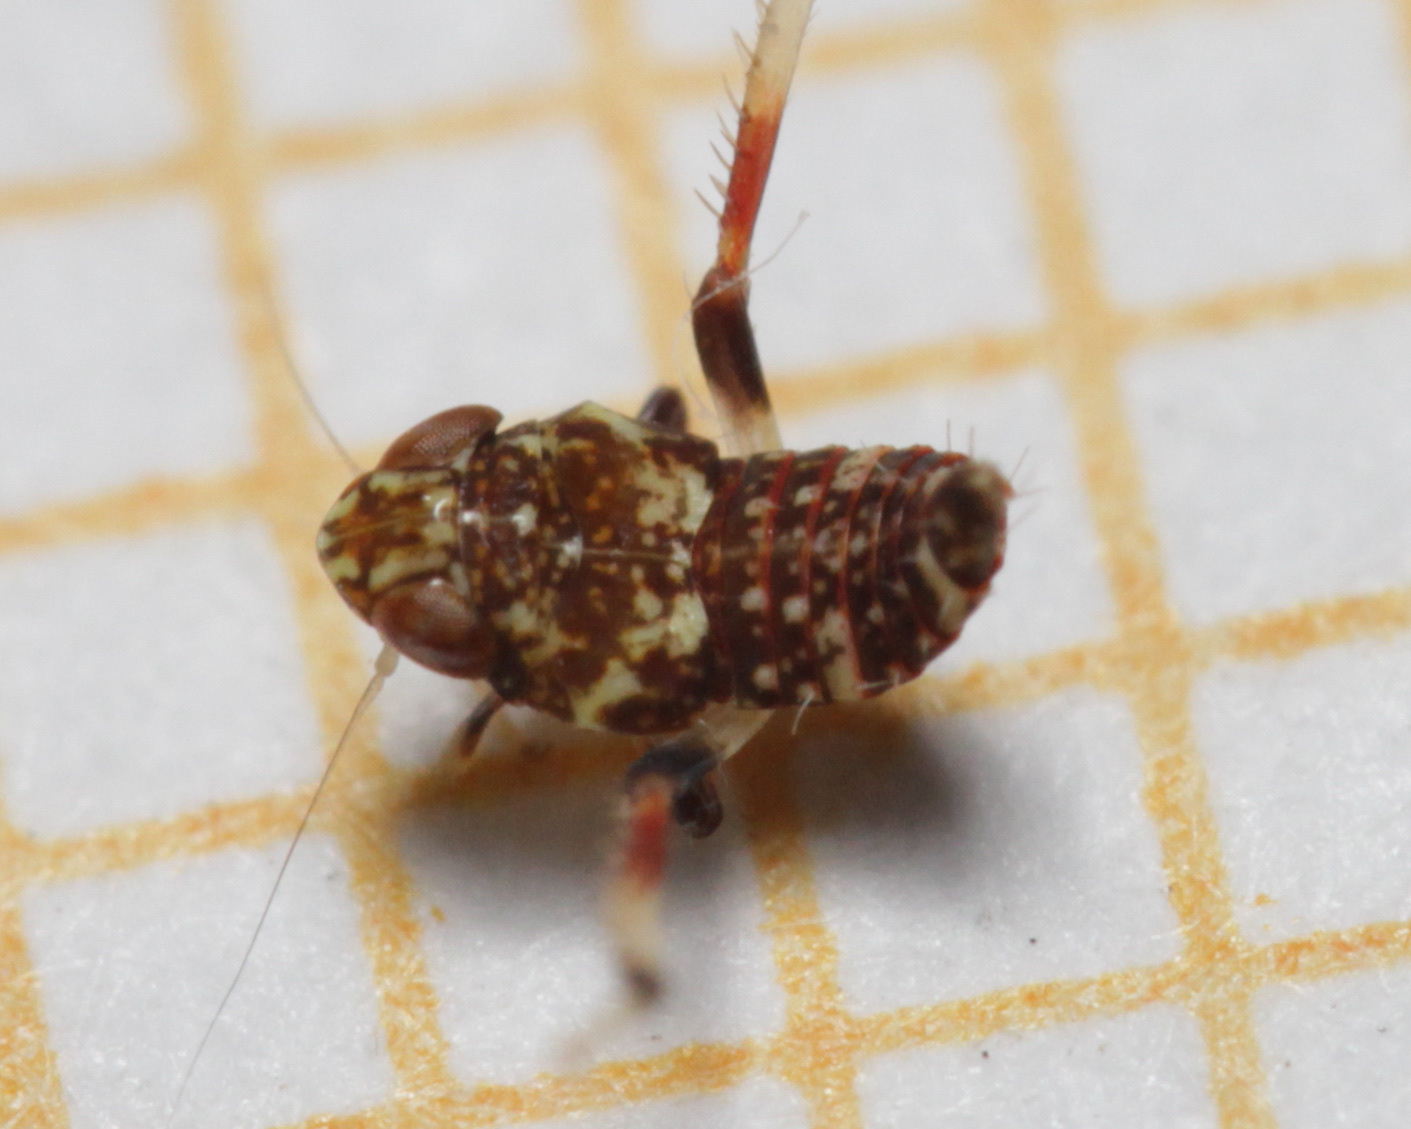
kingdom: Animalia
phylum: Arthropoda
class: Insecta
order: Hemiptera
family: Cicadellidae
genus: Orientus
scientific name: Orientus ishidae
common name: Japanese leafhopper
